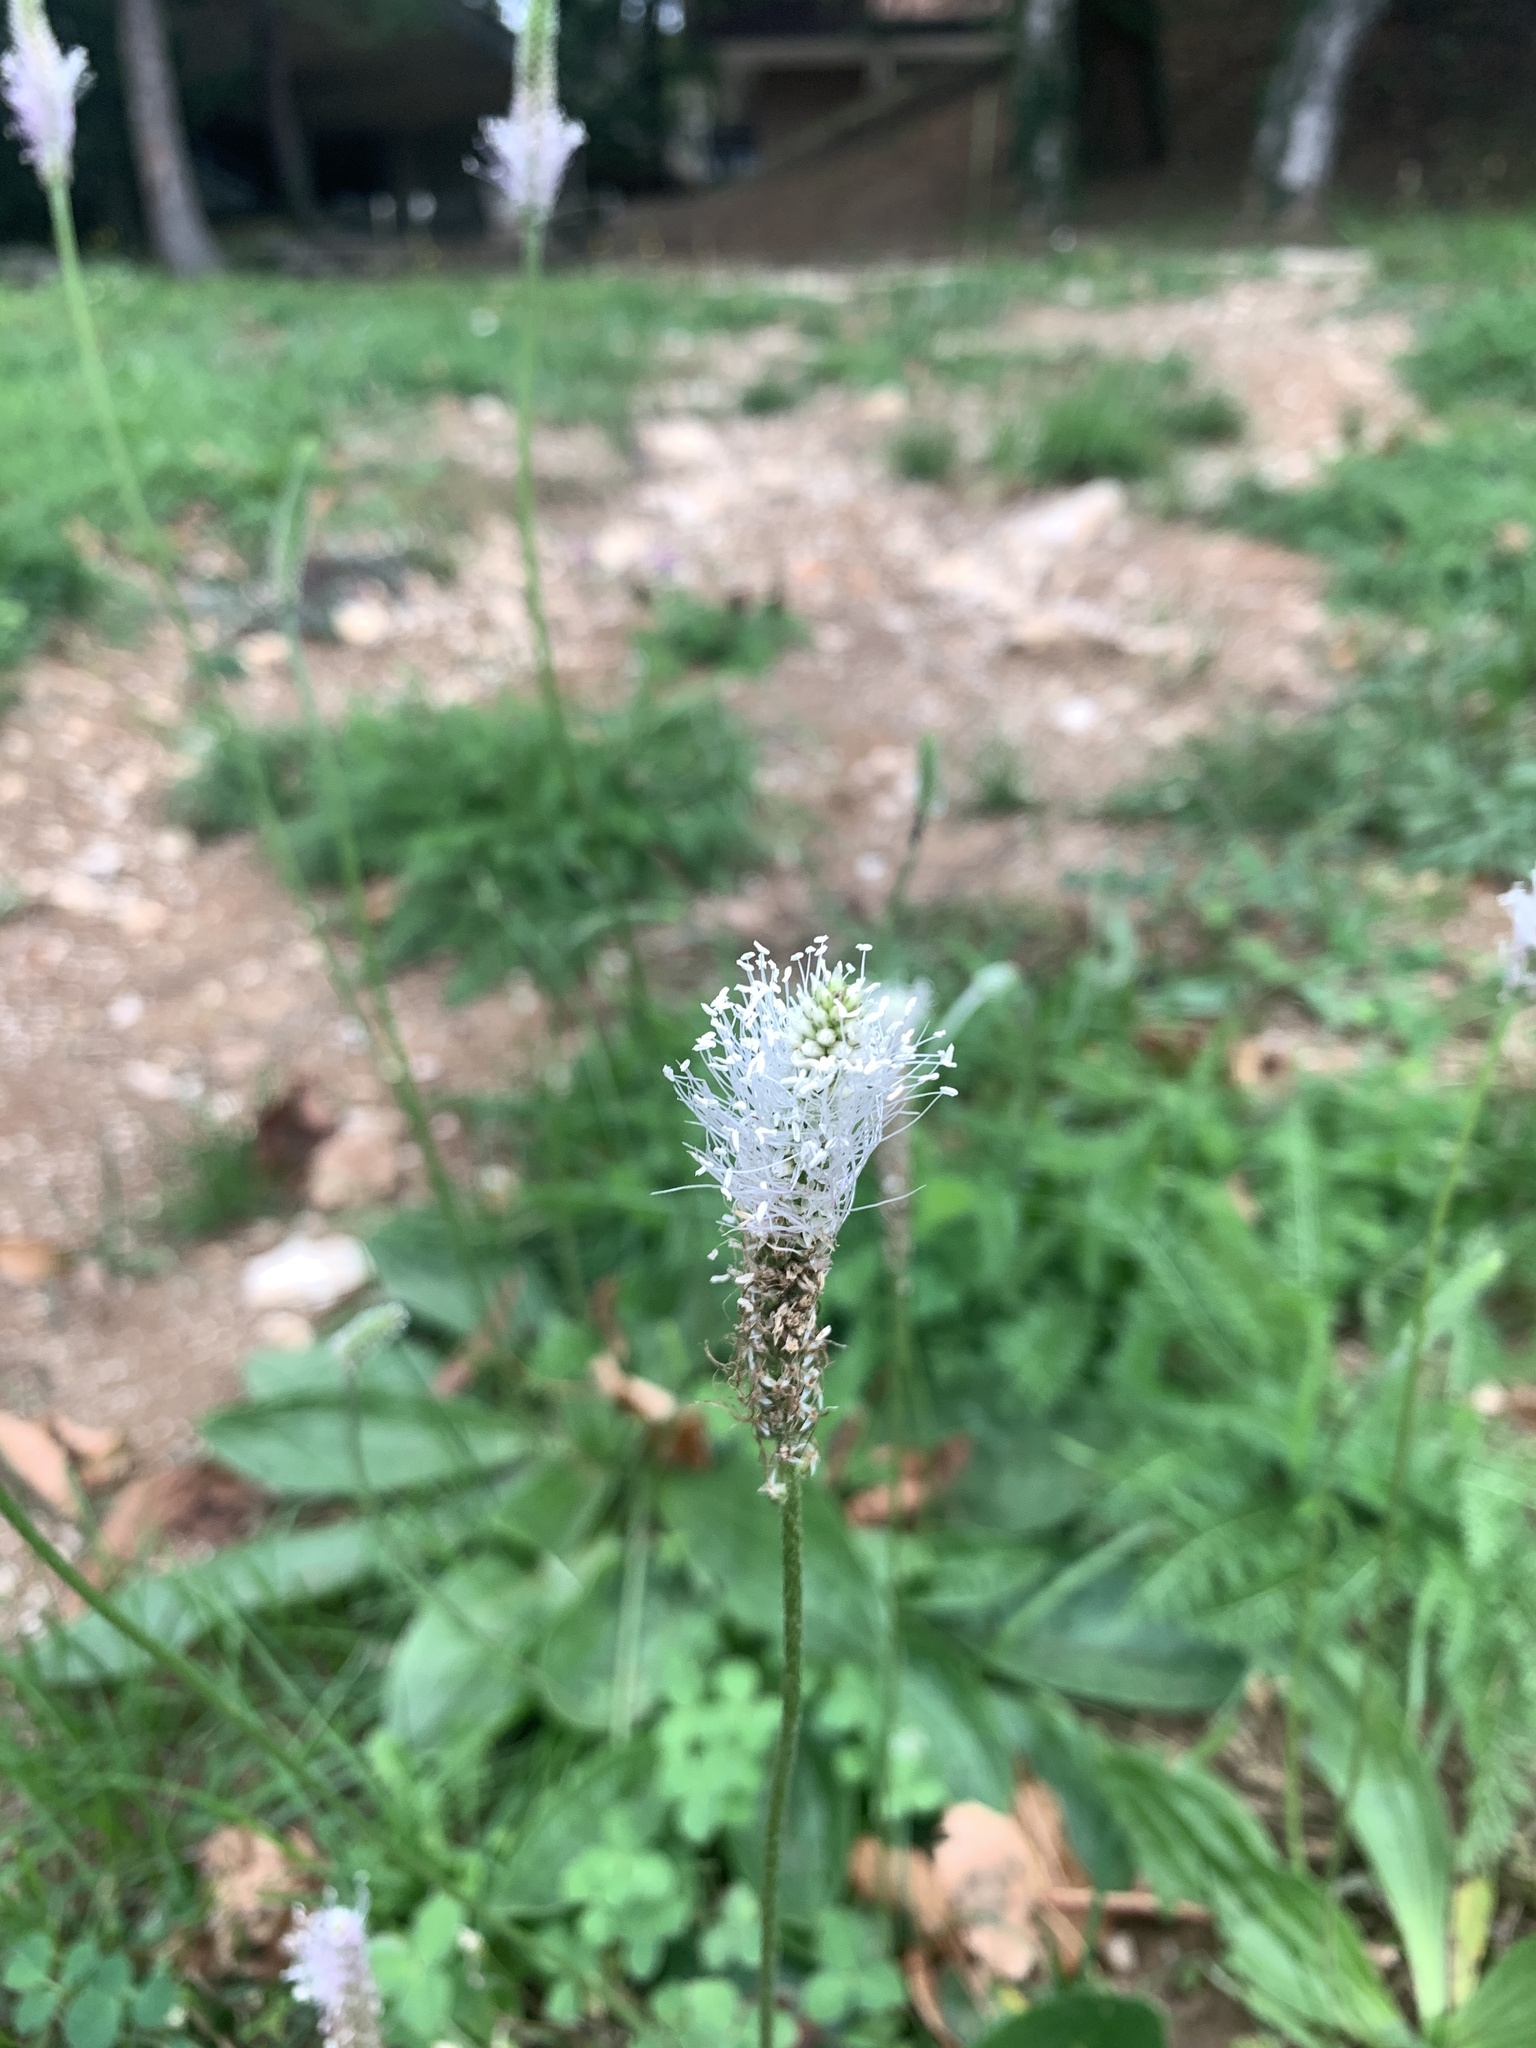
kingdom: Plantae
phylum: Tracheophyta
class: Magnoliopsida
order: Lamiales
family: Plantaginaceae
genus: Plantago
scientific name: Plantago media
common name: Hoary plantain
